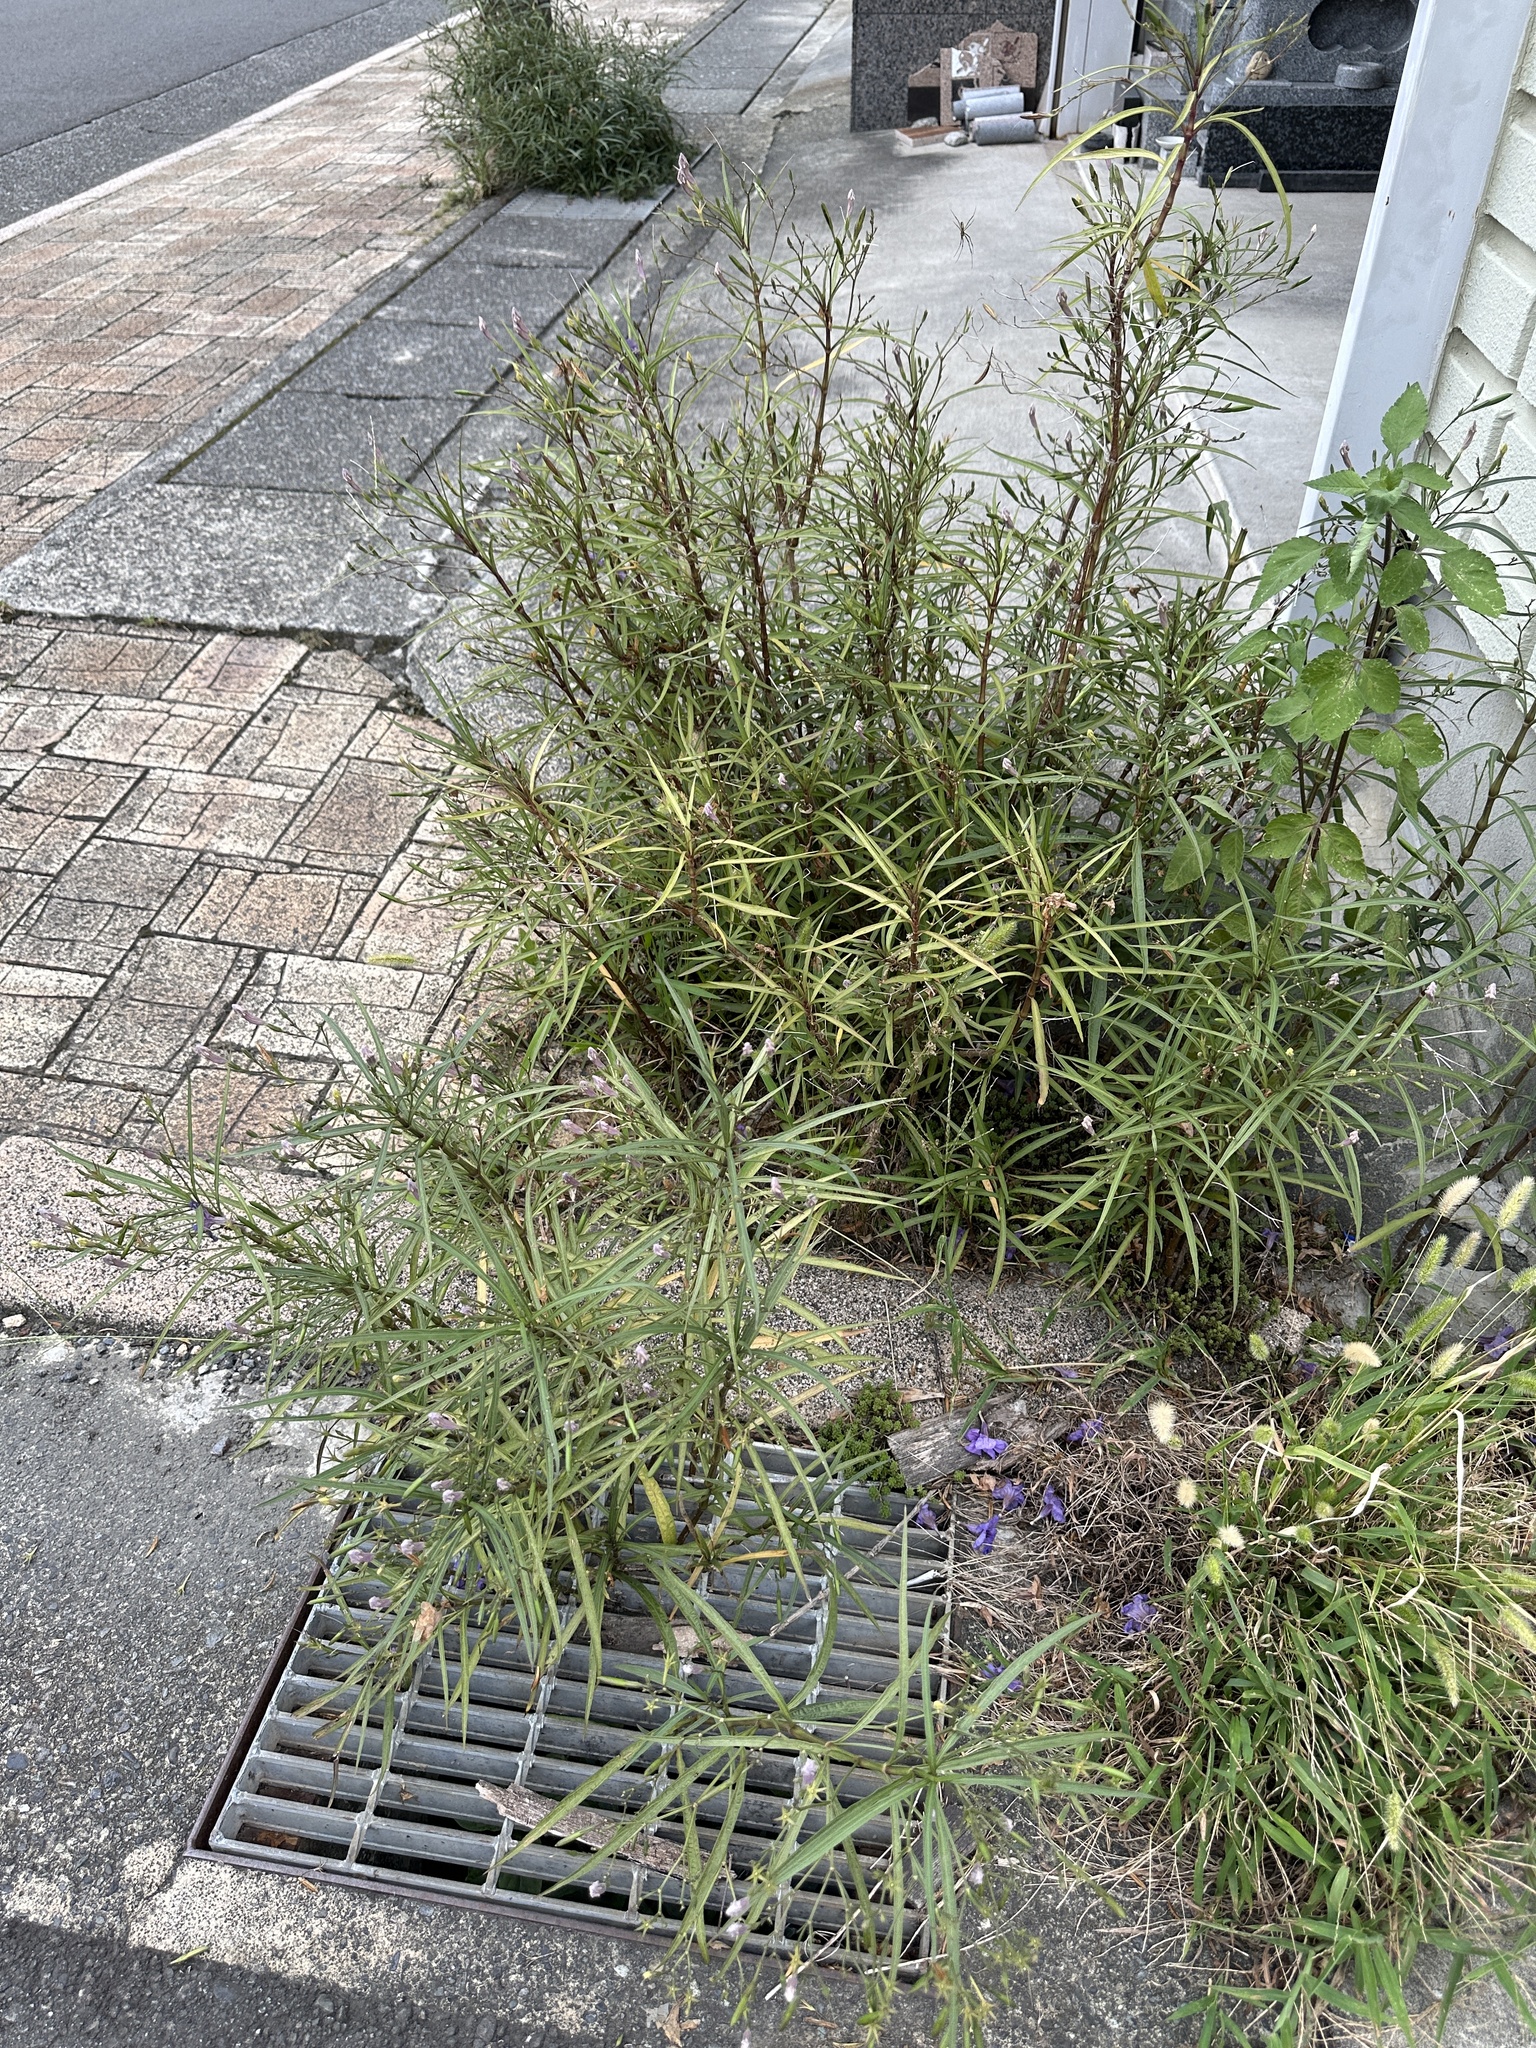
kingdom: Plantae
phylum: Tracheophyta
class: Magnoliopsida
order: Lamiales
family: Acanthaceae
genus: Ruellia
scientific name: Ruellia simplex
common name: Softseed wild petunia
